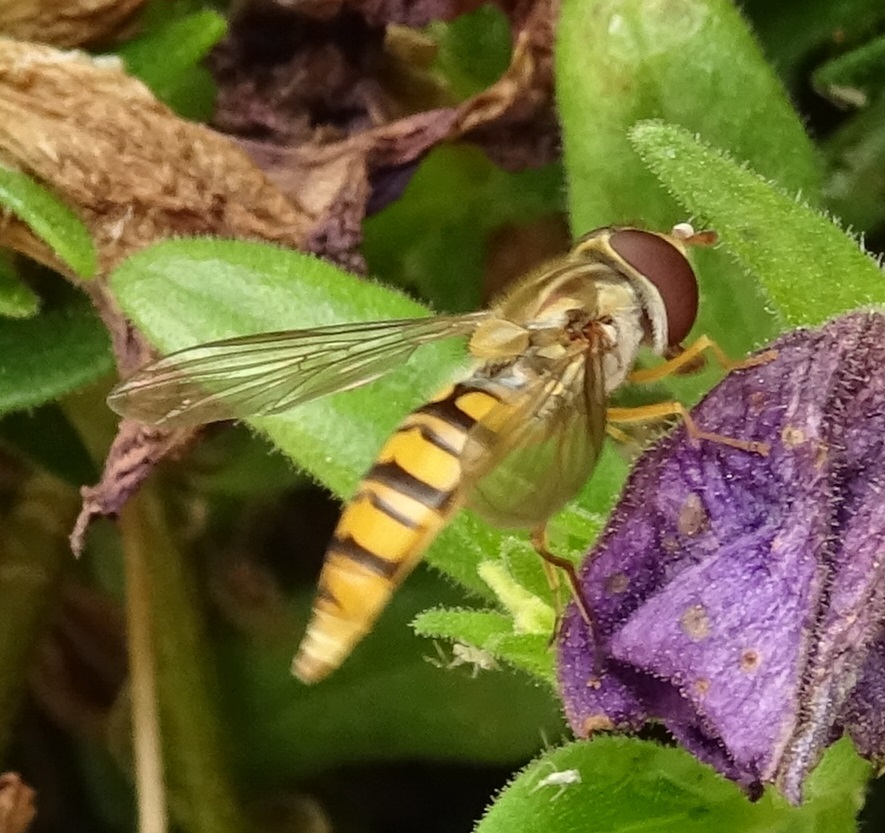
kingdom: Animalia
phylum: Arthropoda
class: Insecta
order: Diptera
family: Syrphidae
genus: Episyrphus
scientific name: Episyrphus balteatus
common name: Marmalade hoverfly
